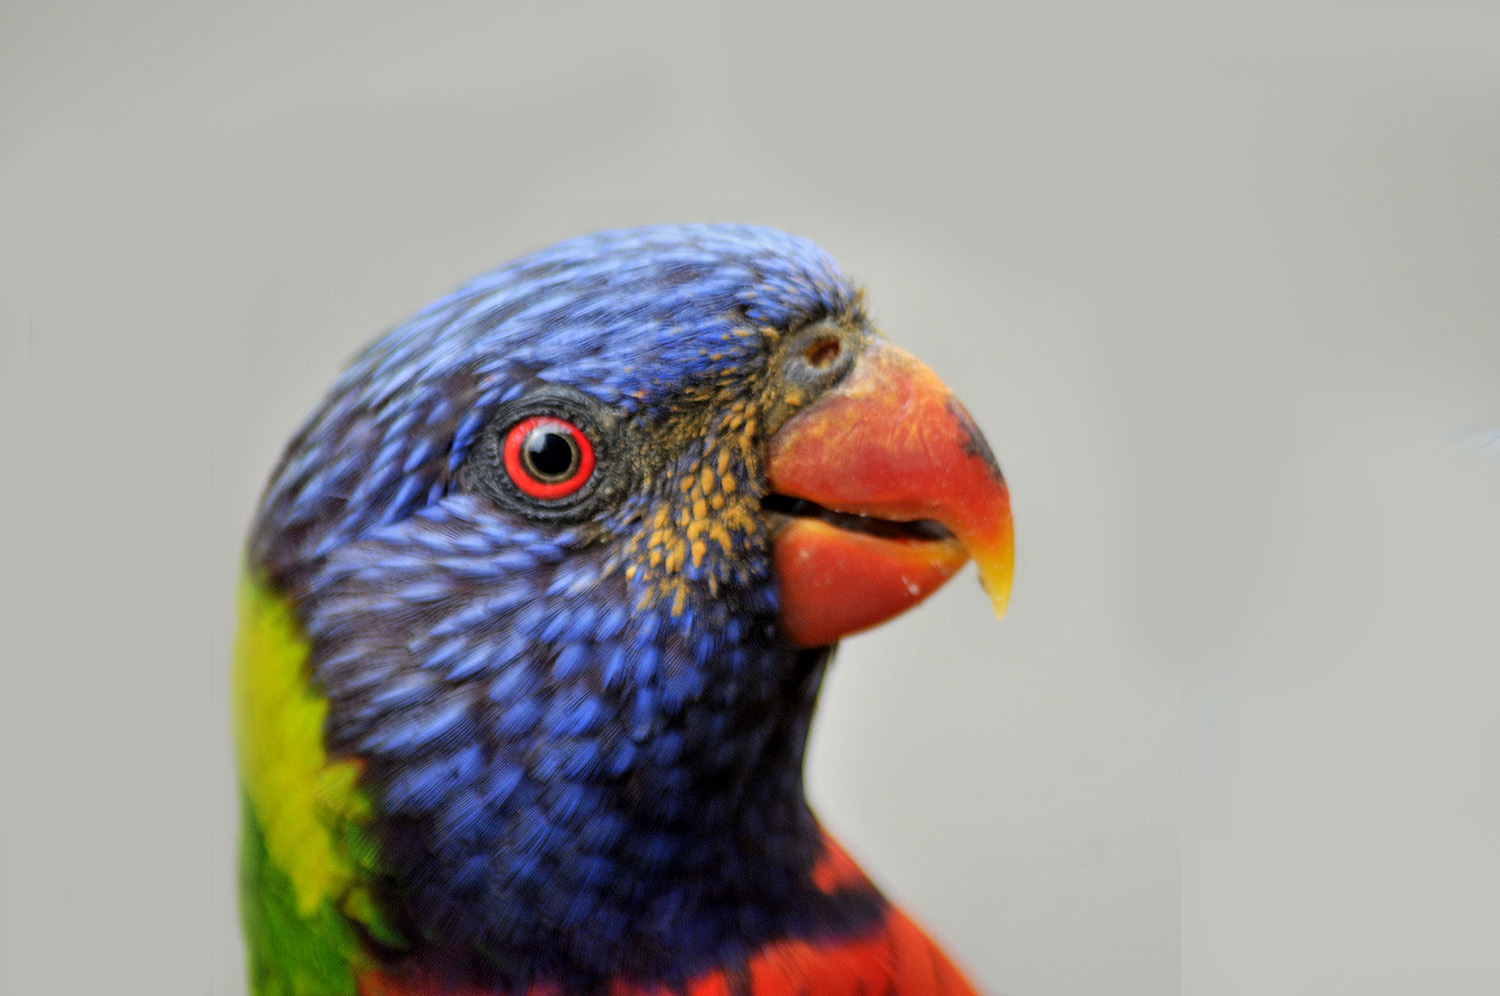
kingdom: Animalia
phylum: Chordata
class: Aves
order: Psittaciformes
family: Psittacidae
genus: Trichoglossus
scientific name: Trichoglossus haematodus
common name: Coconut lorikeet
